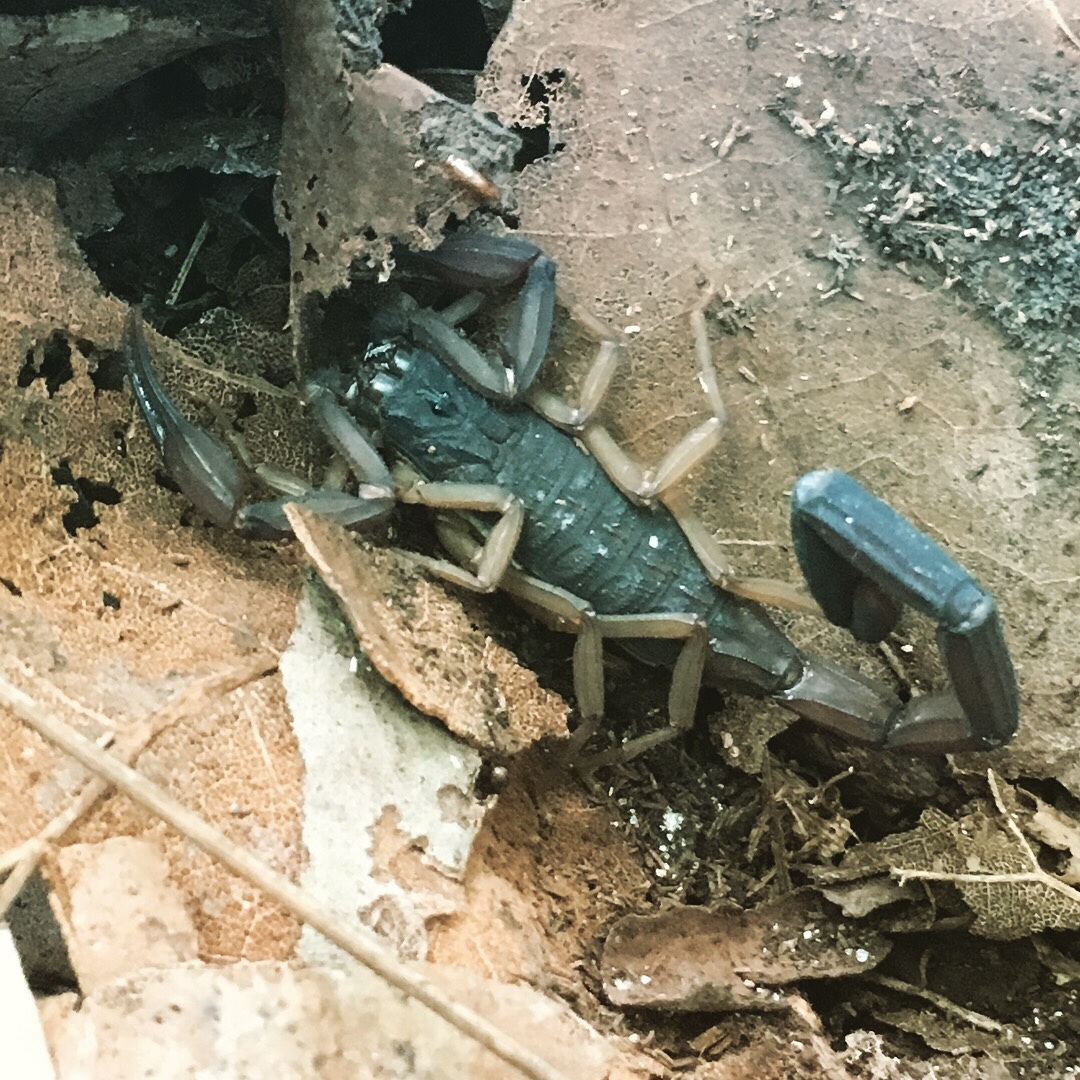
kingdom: Animalia
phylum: Arthropoda
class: Arachnida
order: Scorpiones
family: Buthidae
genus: Centruroides
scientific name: Centruroides gracilis
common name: Scorpions
